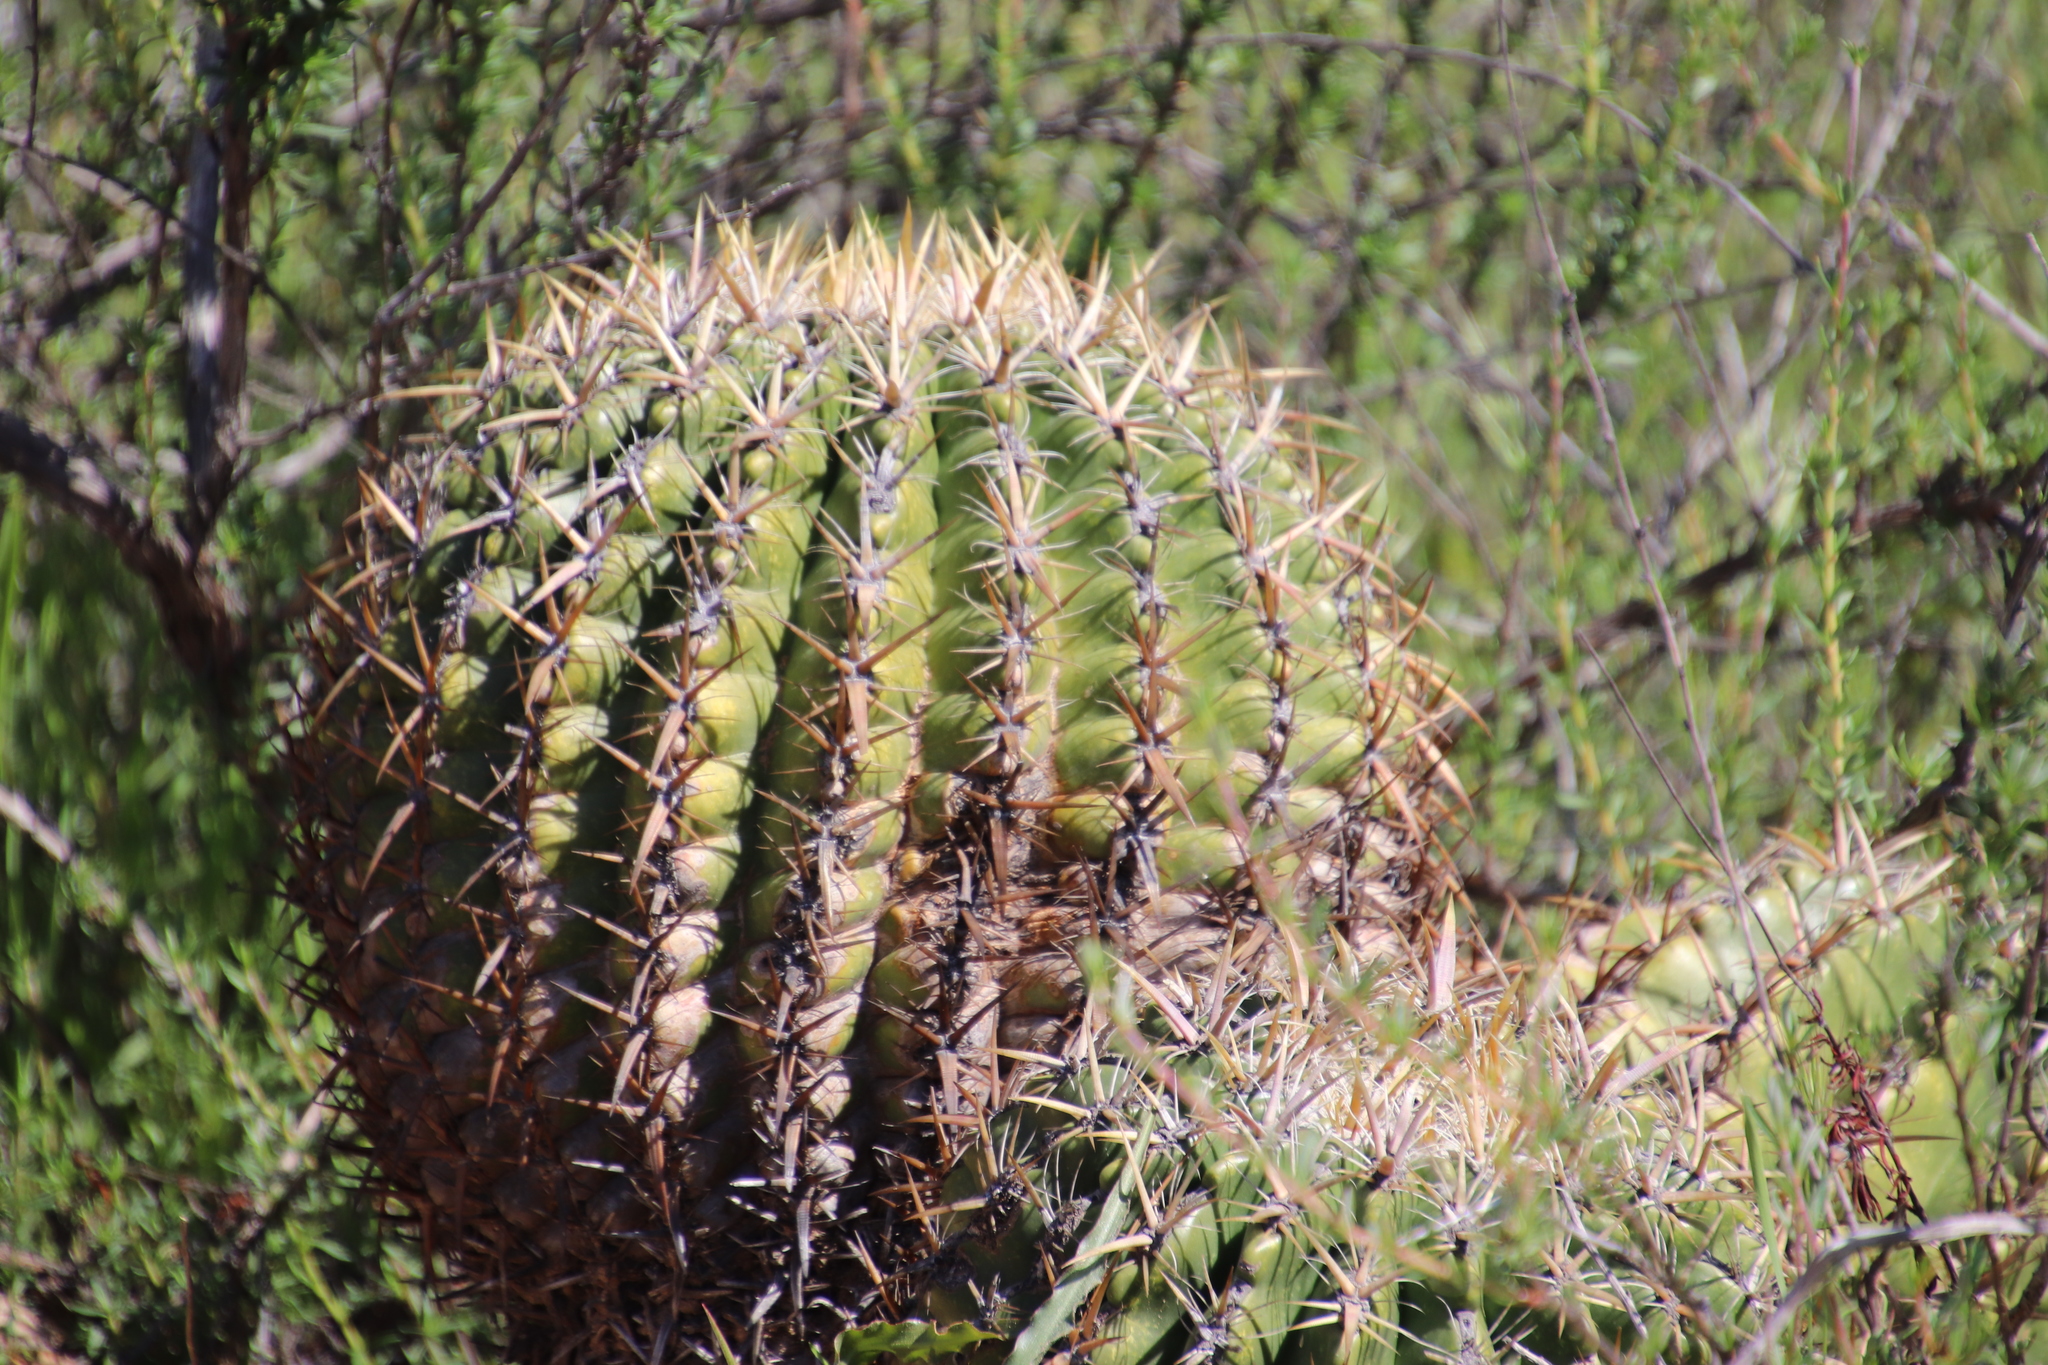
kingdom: Plantae
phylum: Tracheophyta
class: Magnoliopsida
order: Caryophyllales
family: Cactaceae
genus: Ferocactus
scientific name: Ferocactus viridescens
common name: San diego barrel cactus
